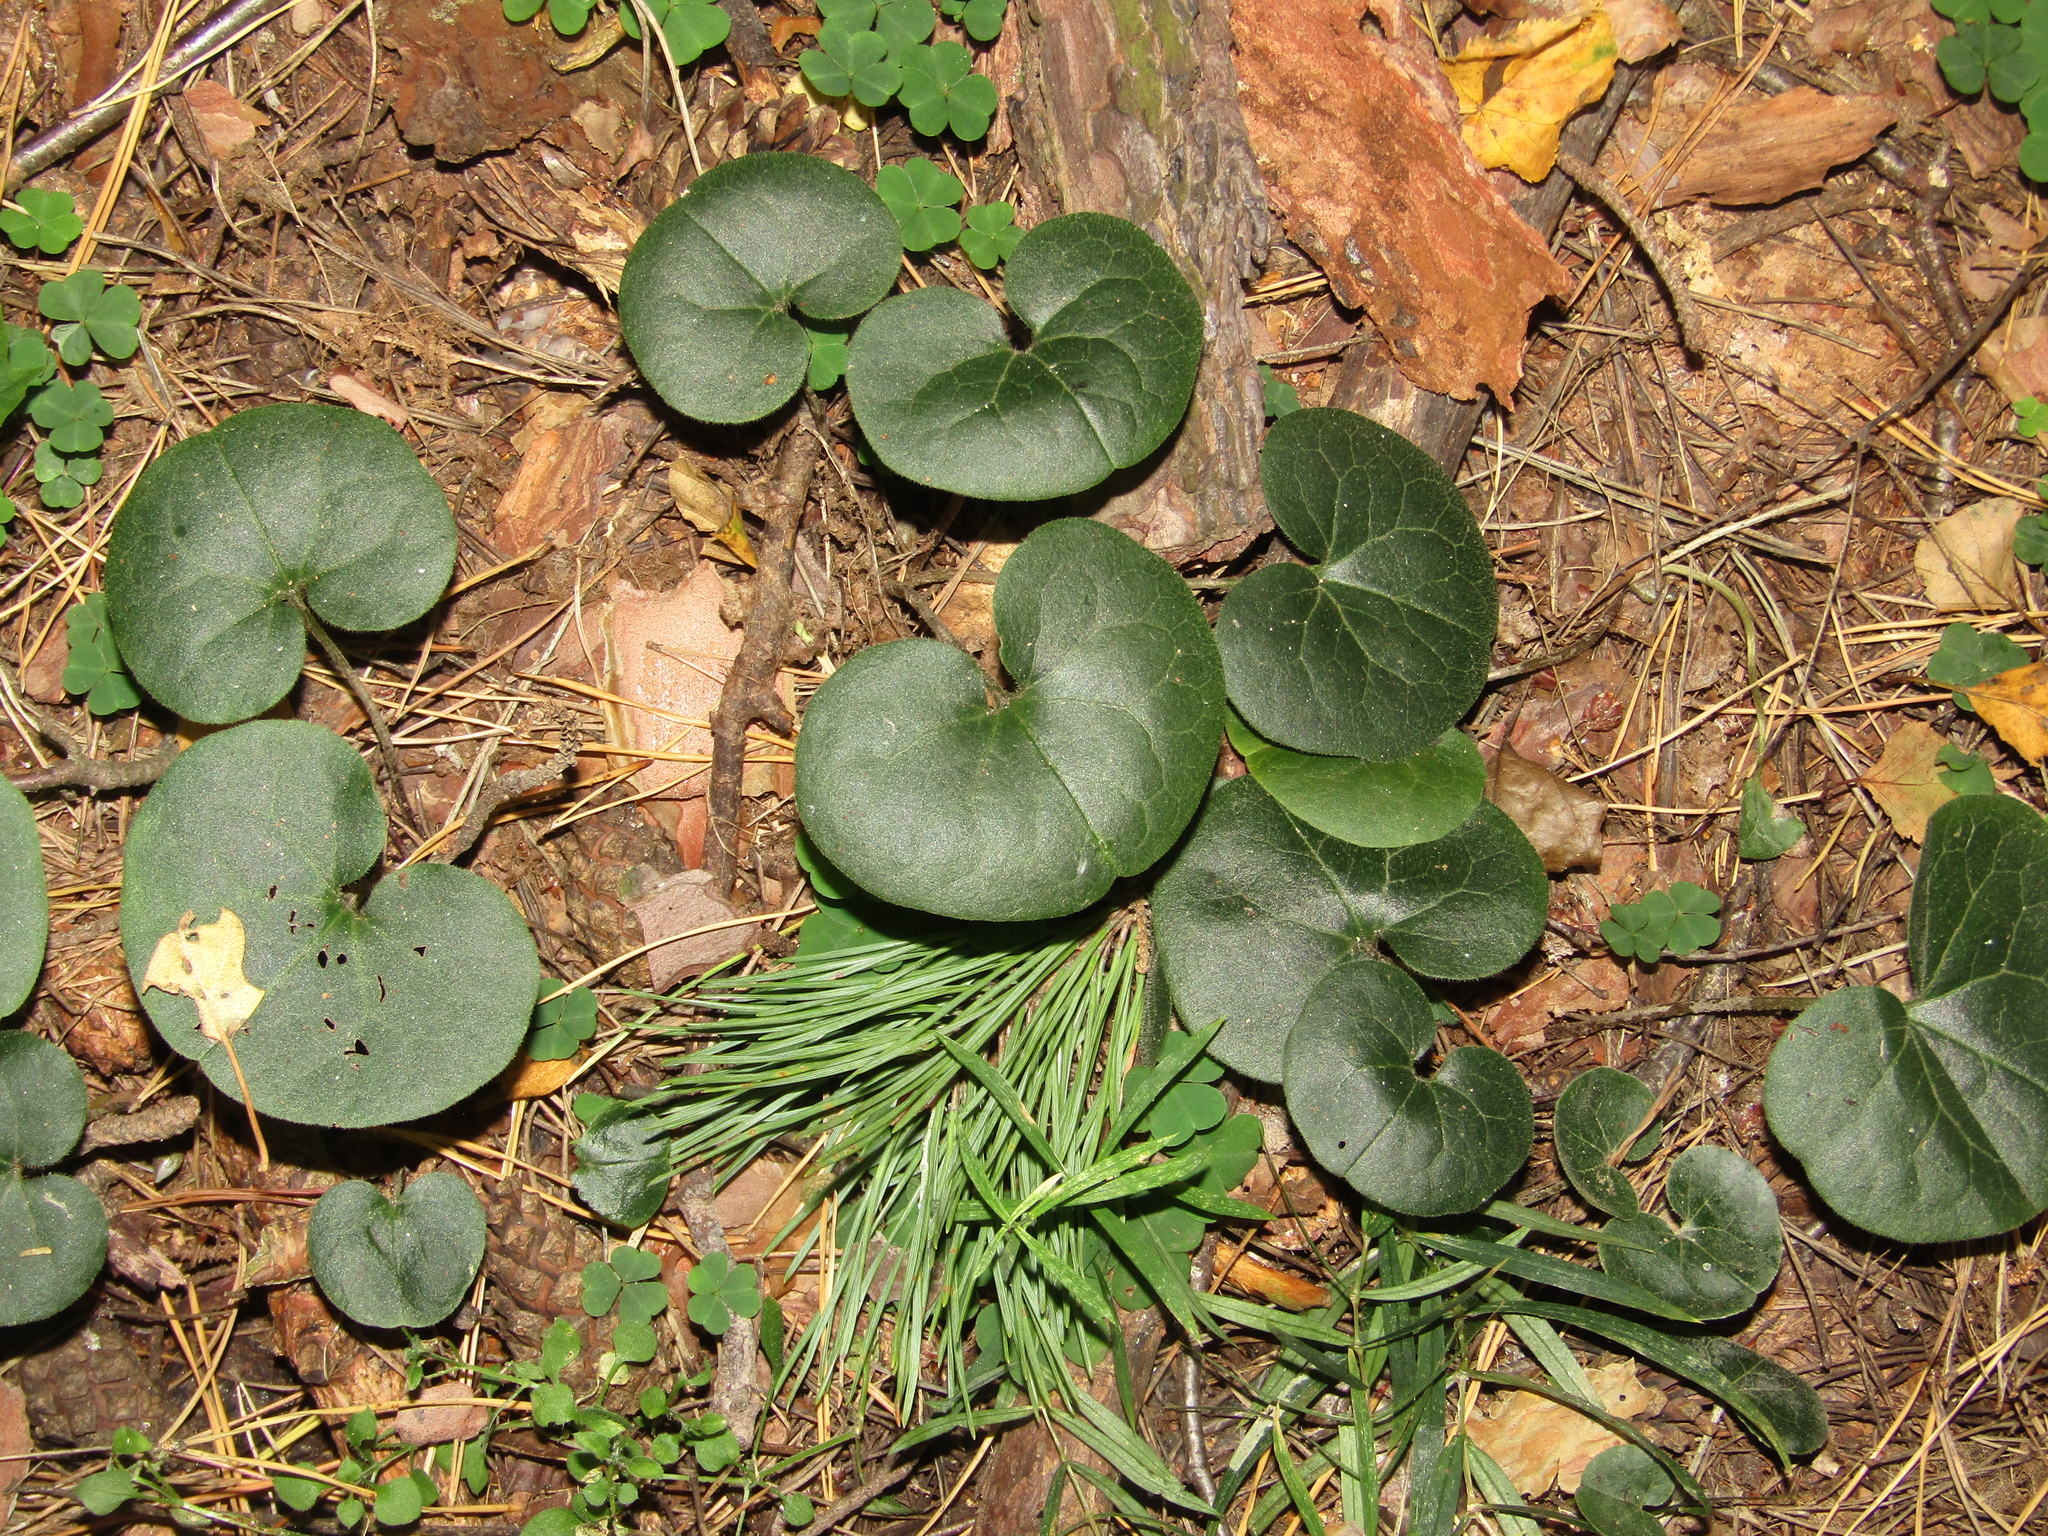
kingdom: Plantae
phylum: Tracheophyta
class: Magnoliopsida
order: Piperales
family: Aristolochiaceae
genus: Asarum
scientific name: Asarum europaeum
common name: Asarabacca
